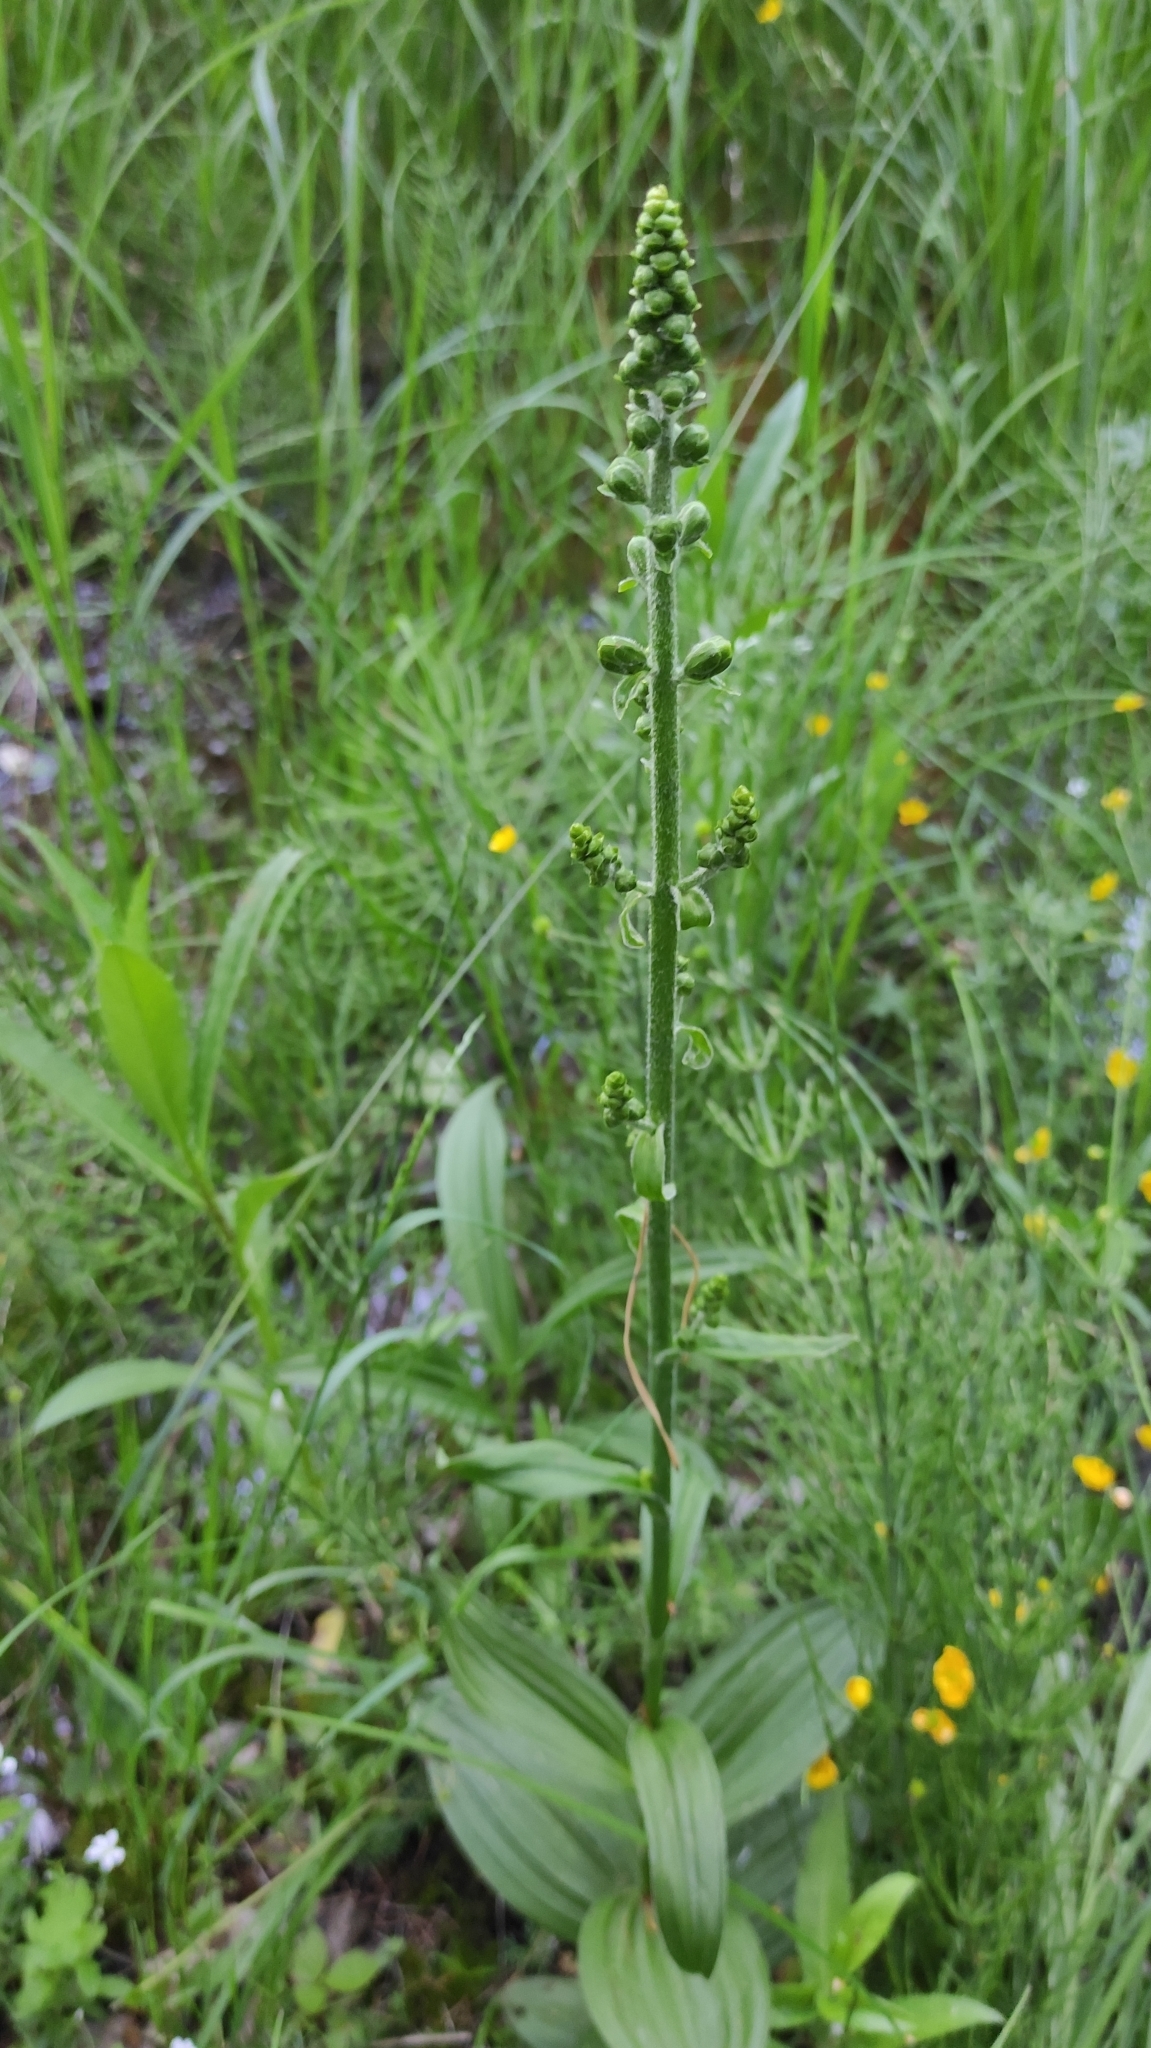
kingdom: Plantae
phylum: Tracheophyta
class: Liliopsida
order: Liliales
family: Melanthiaceae
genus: Veratrum
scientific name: Veratrum nigrum
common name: Black veratrum
